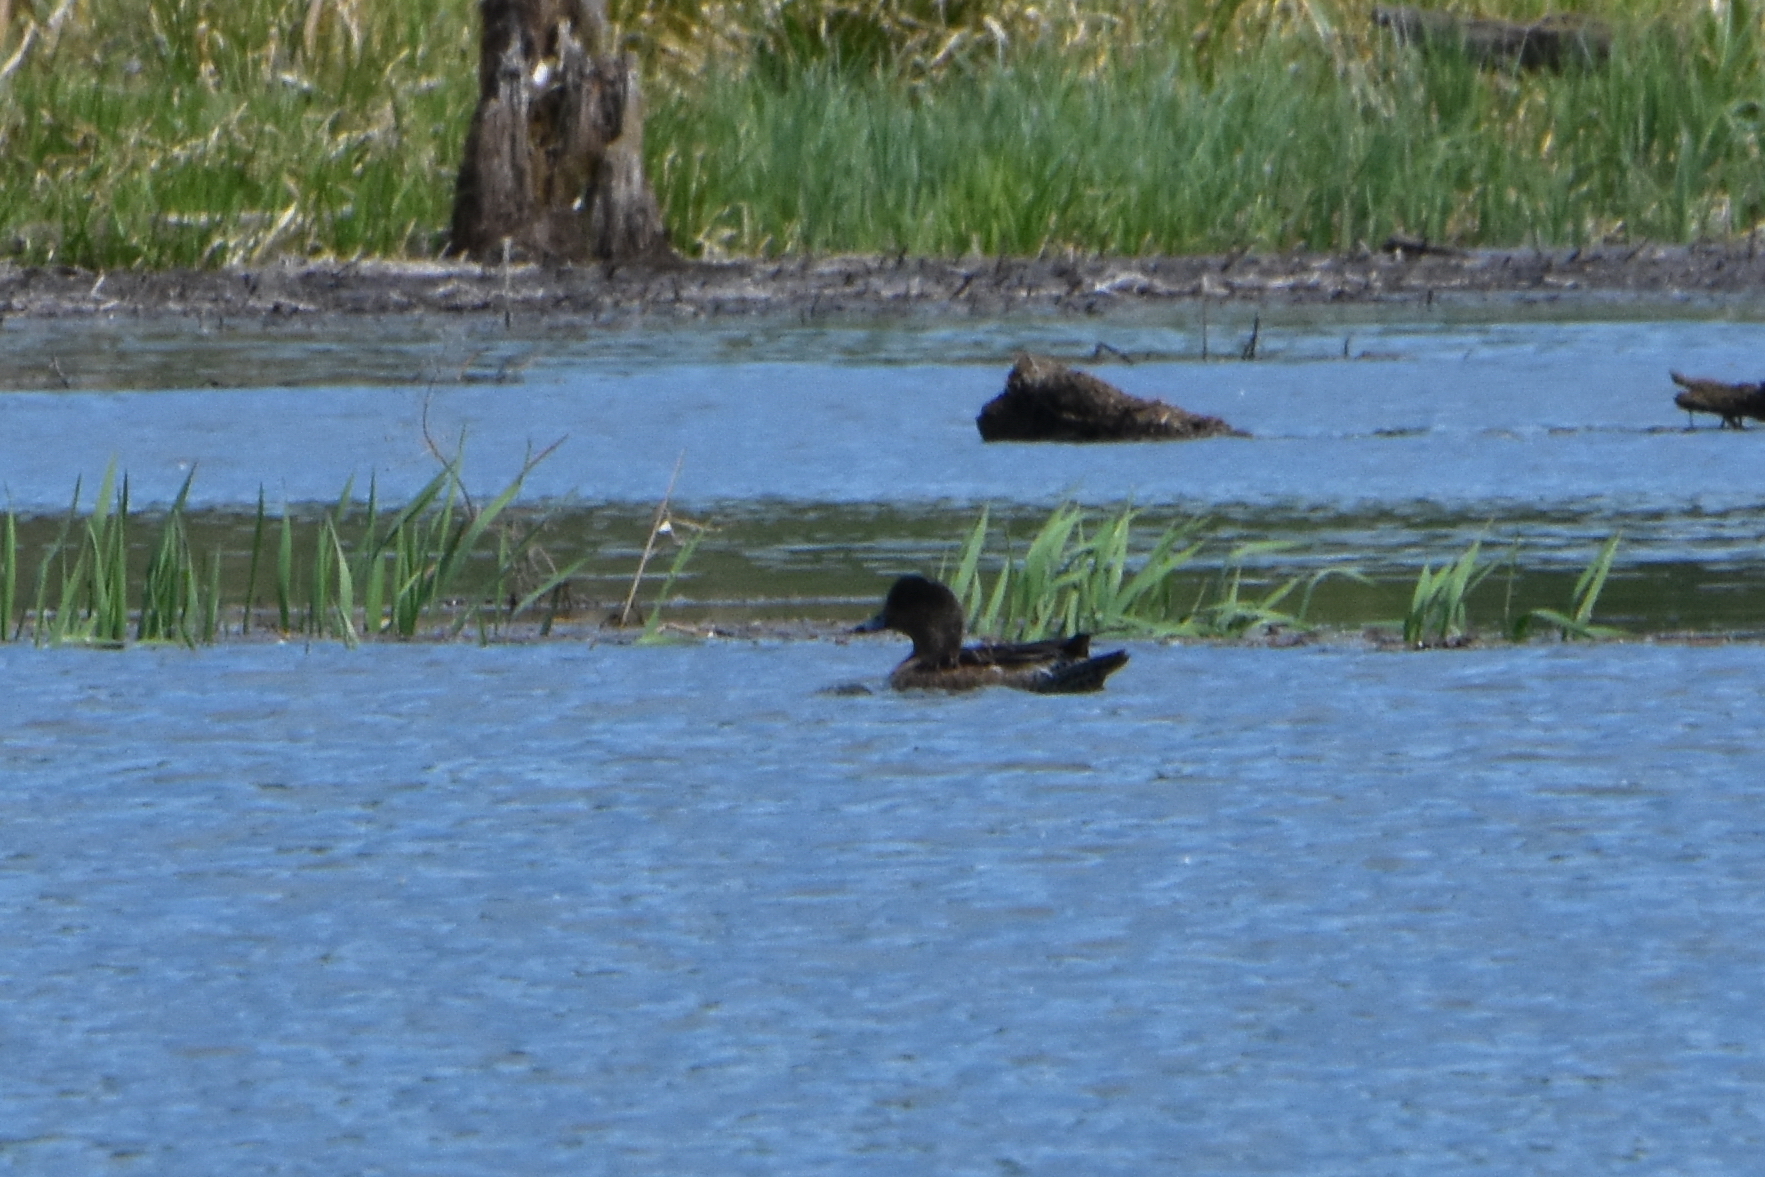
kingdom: Animalia
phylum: Chordata
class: Aves
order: Anseriformes
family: Anatidae
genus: Mareca
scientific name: Mareca penelope
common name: Eurasian wigeon
